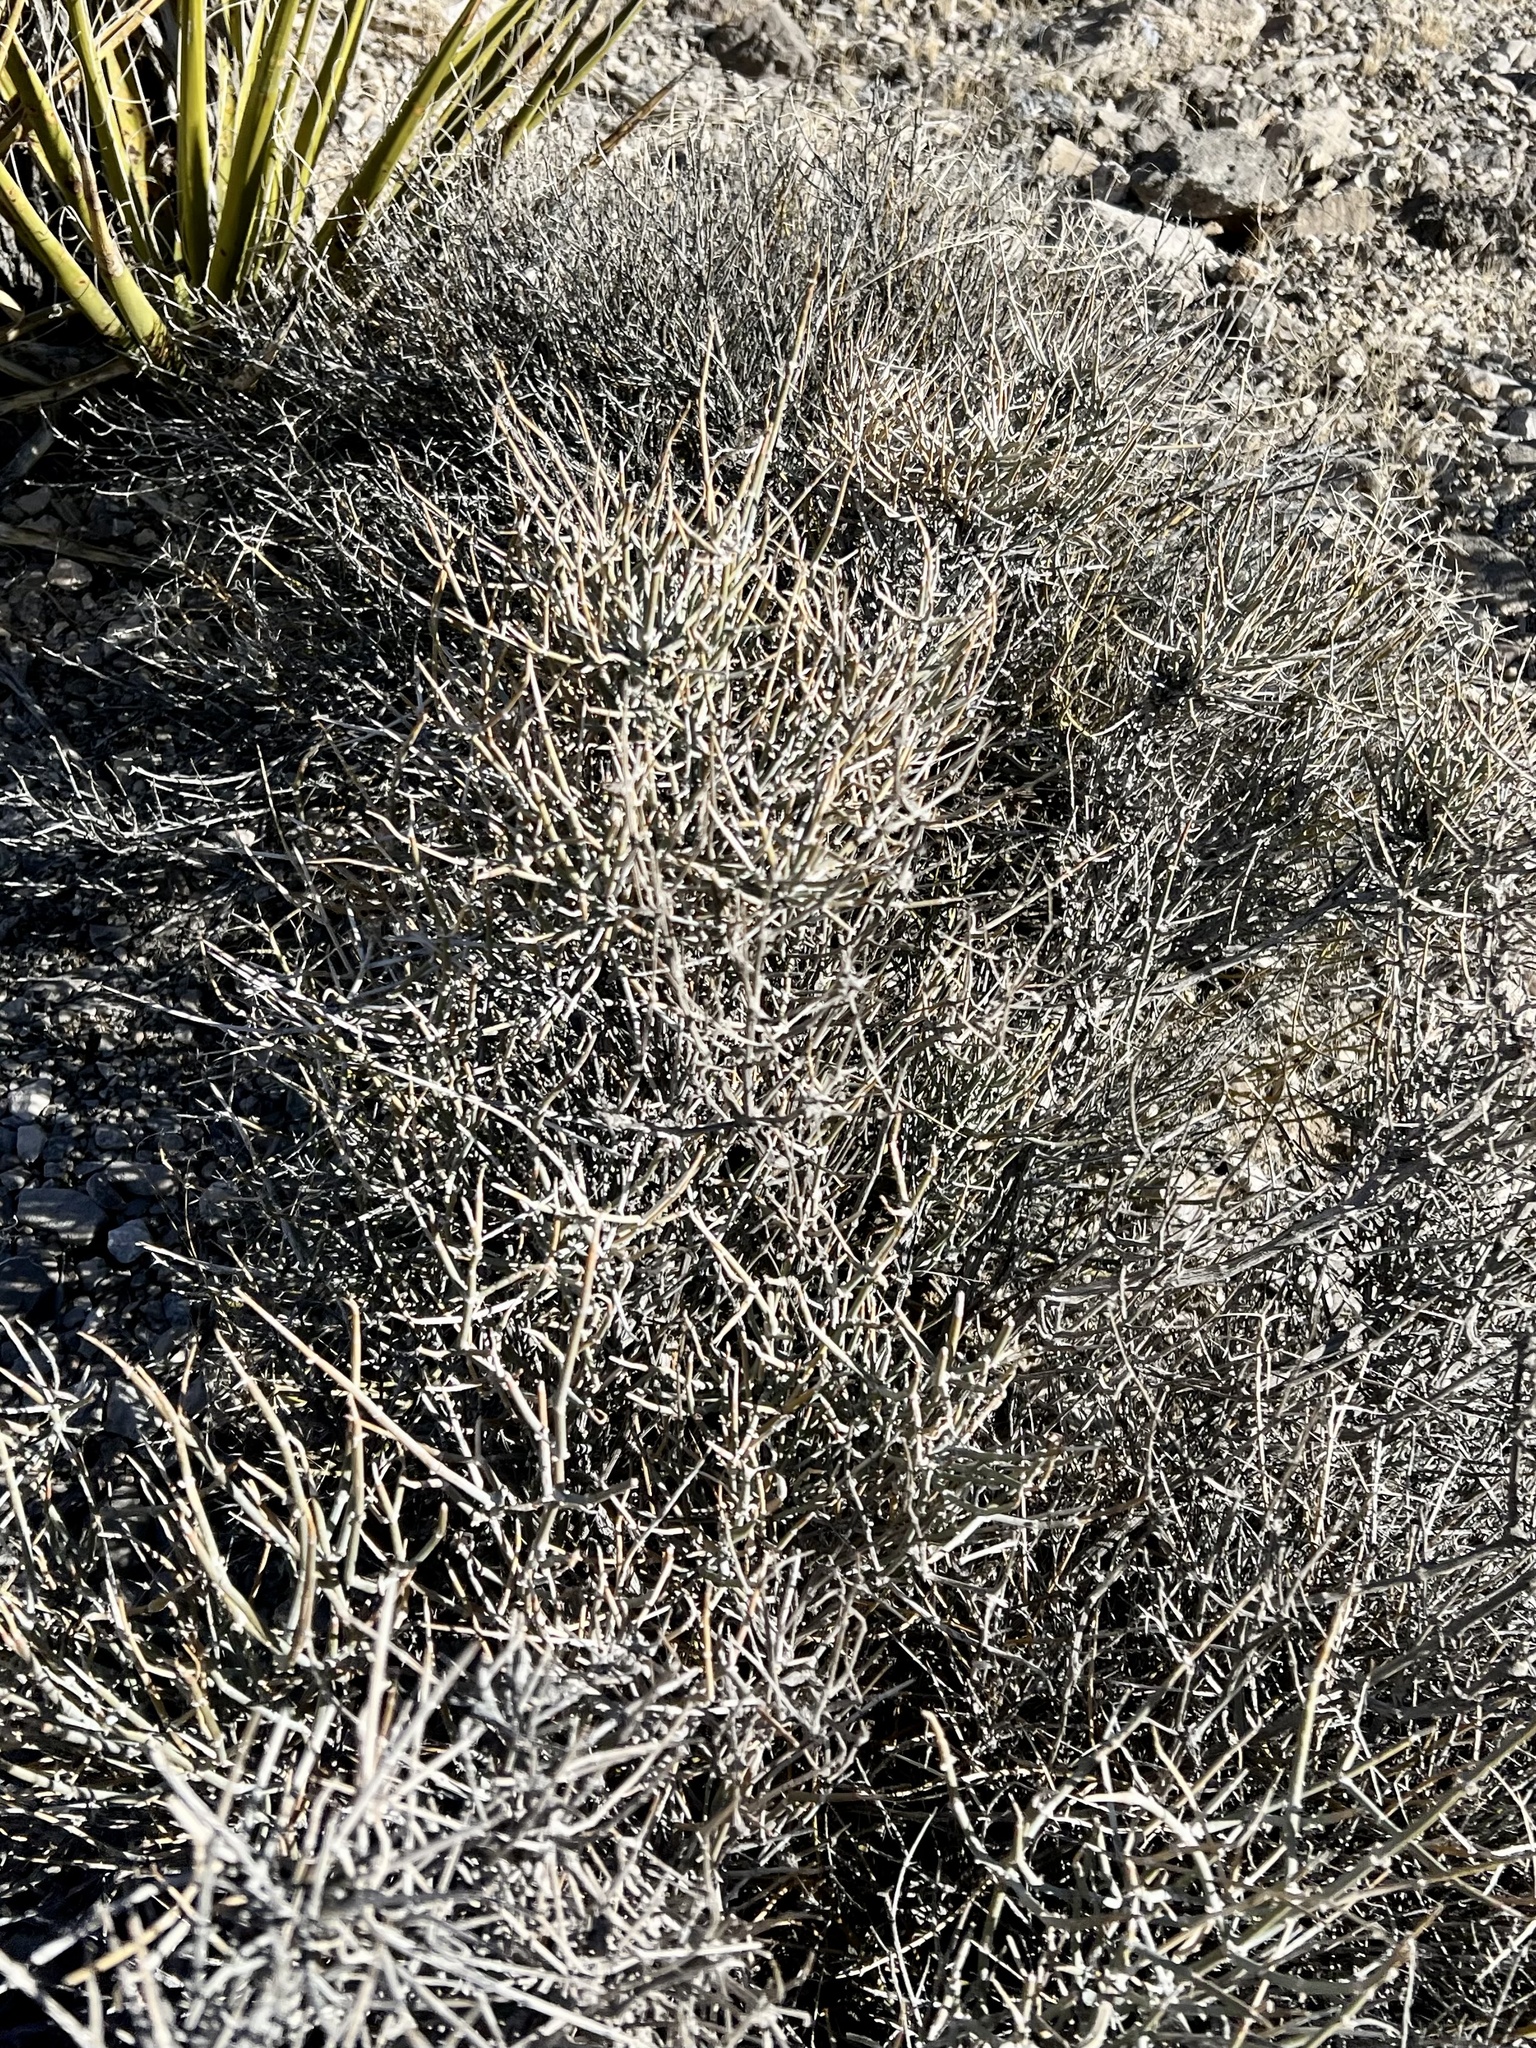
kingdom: Plantae
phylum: Tracheophyta
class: Magnoliopsida
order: Lamiales
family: Oleaceae
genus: Menodora
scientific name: Menodora spinescens
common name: Spiny menodora
